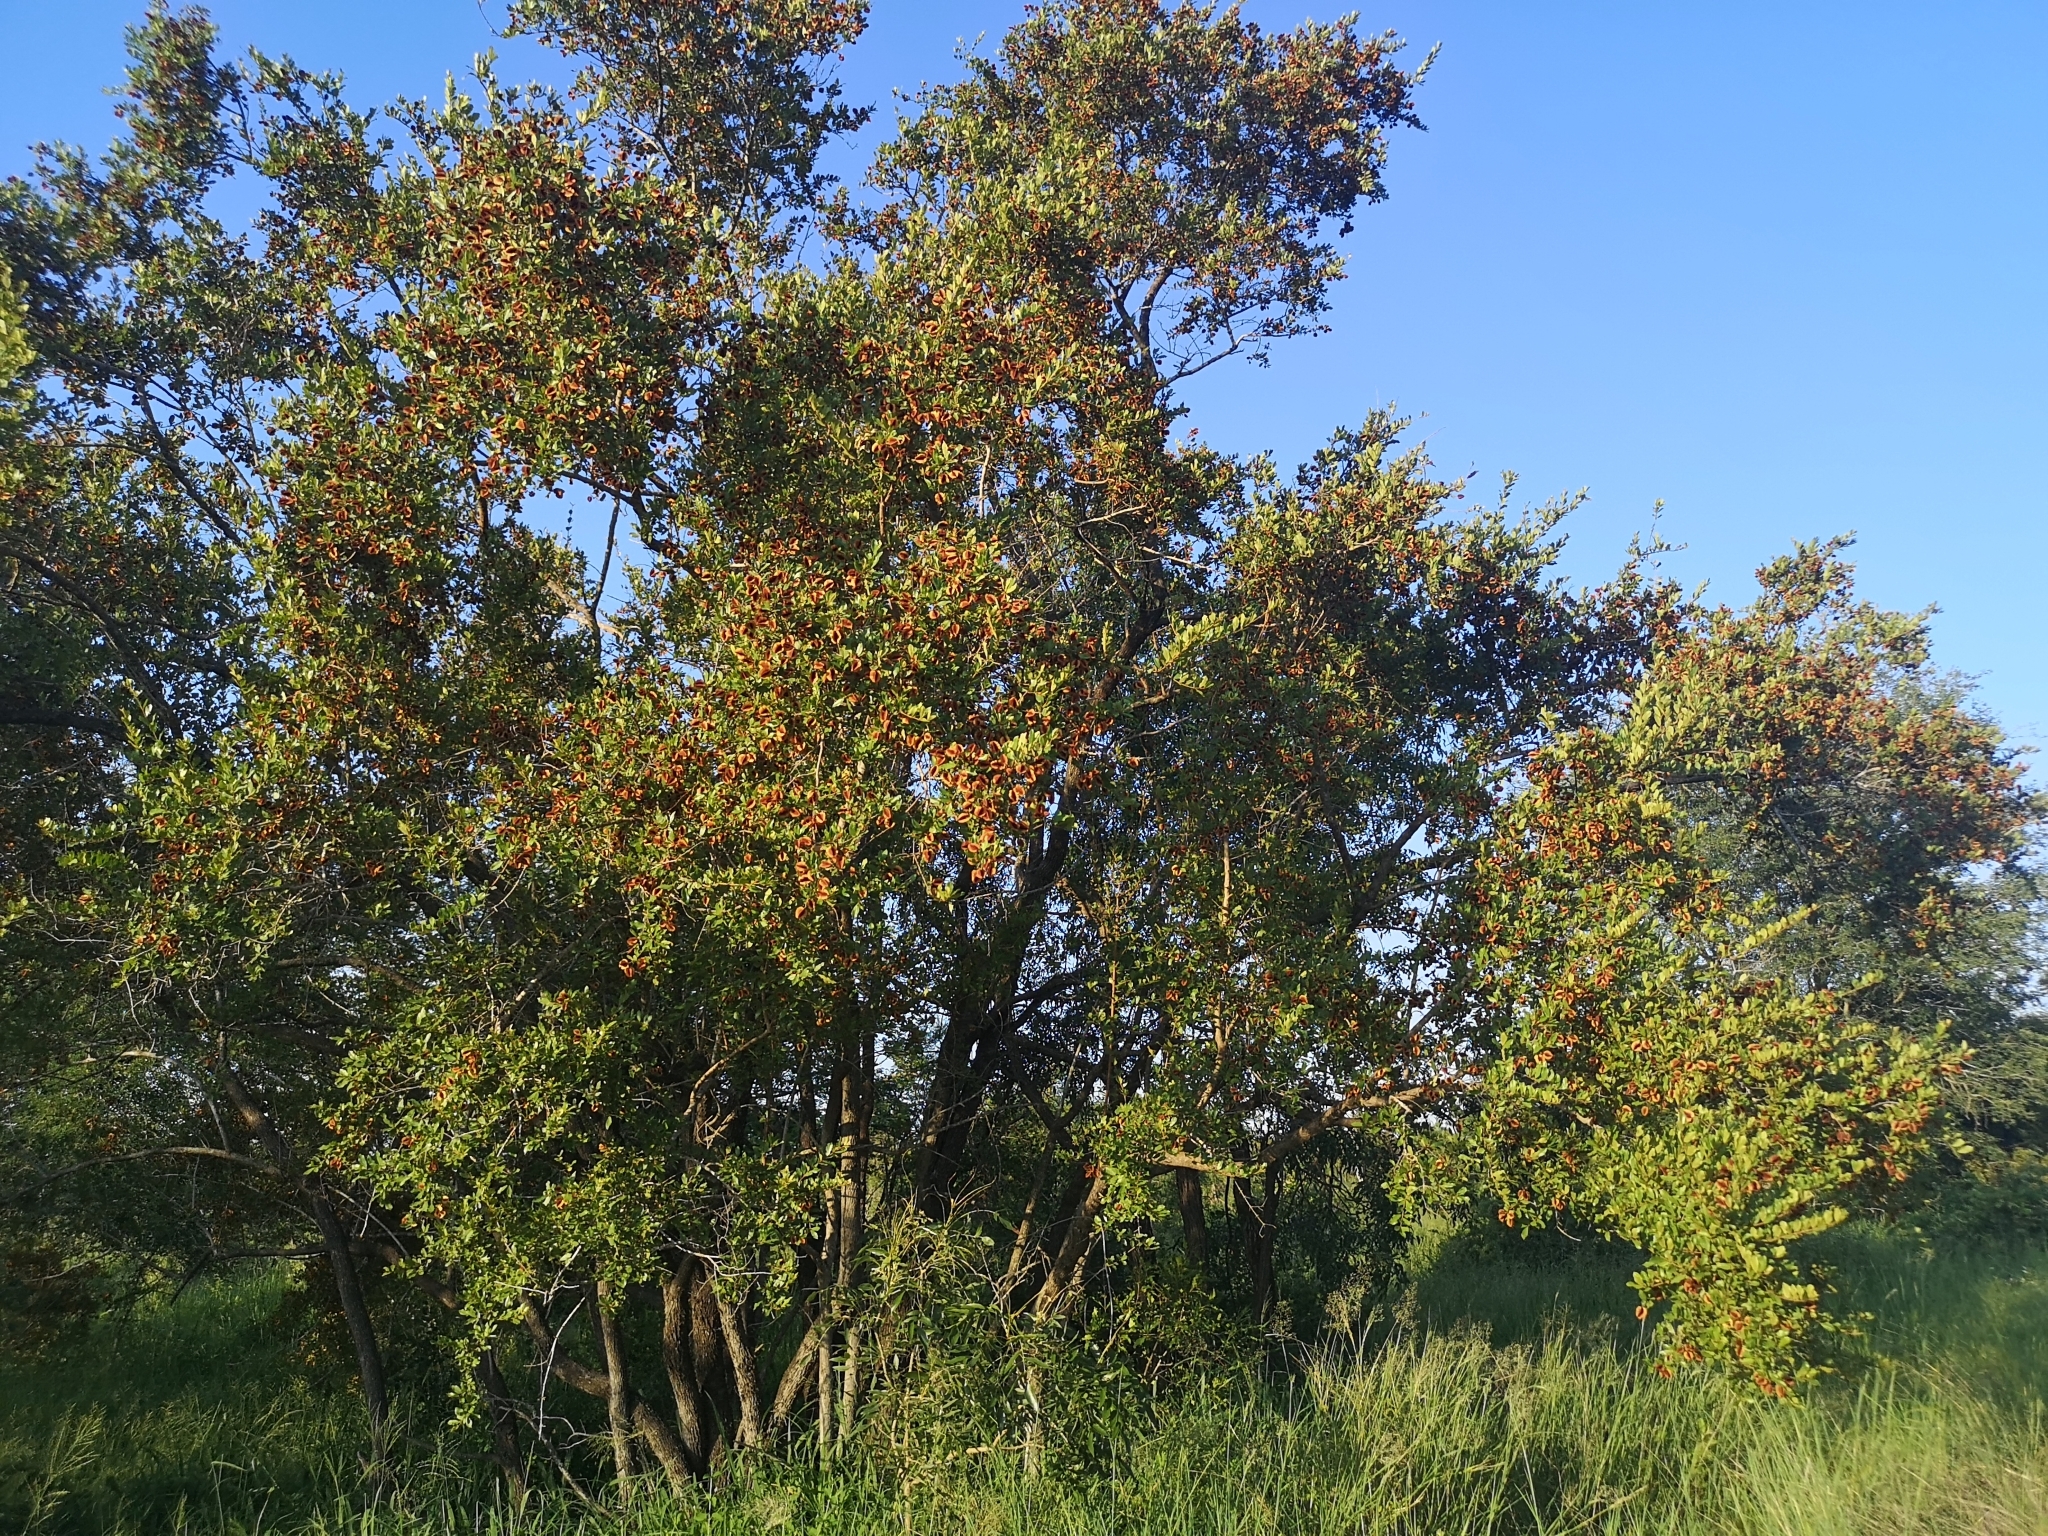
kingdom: Plantae
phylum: Tracheophyta
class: Magnoliopsida
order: Myrtales
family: Combretaceae
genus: Combretum
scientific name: Combretum hereroense
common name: Russet bushwillow
